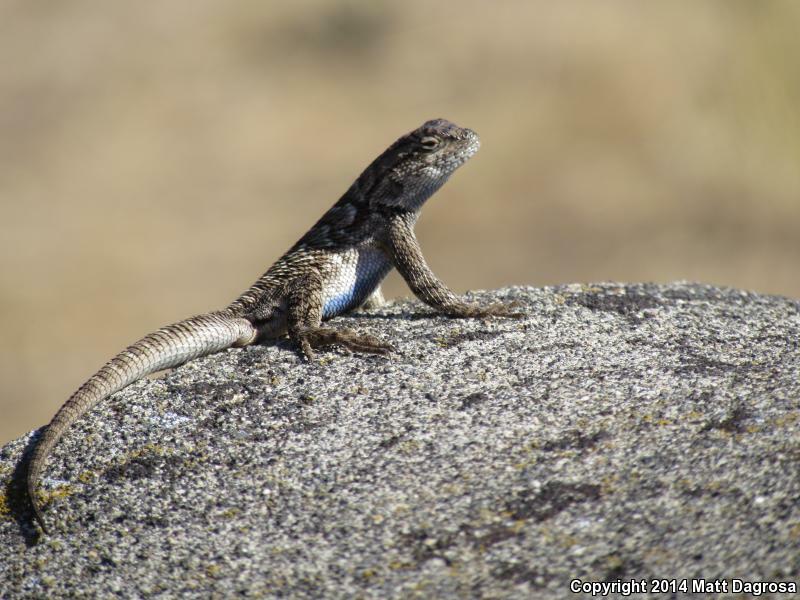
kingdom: Animalia
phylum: Chordata
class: Squamata
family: Phrynosomatidae
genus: Sceloporus
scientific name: Sceloporus occidentalis
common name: Western fence lizard
